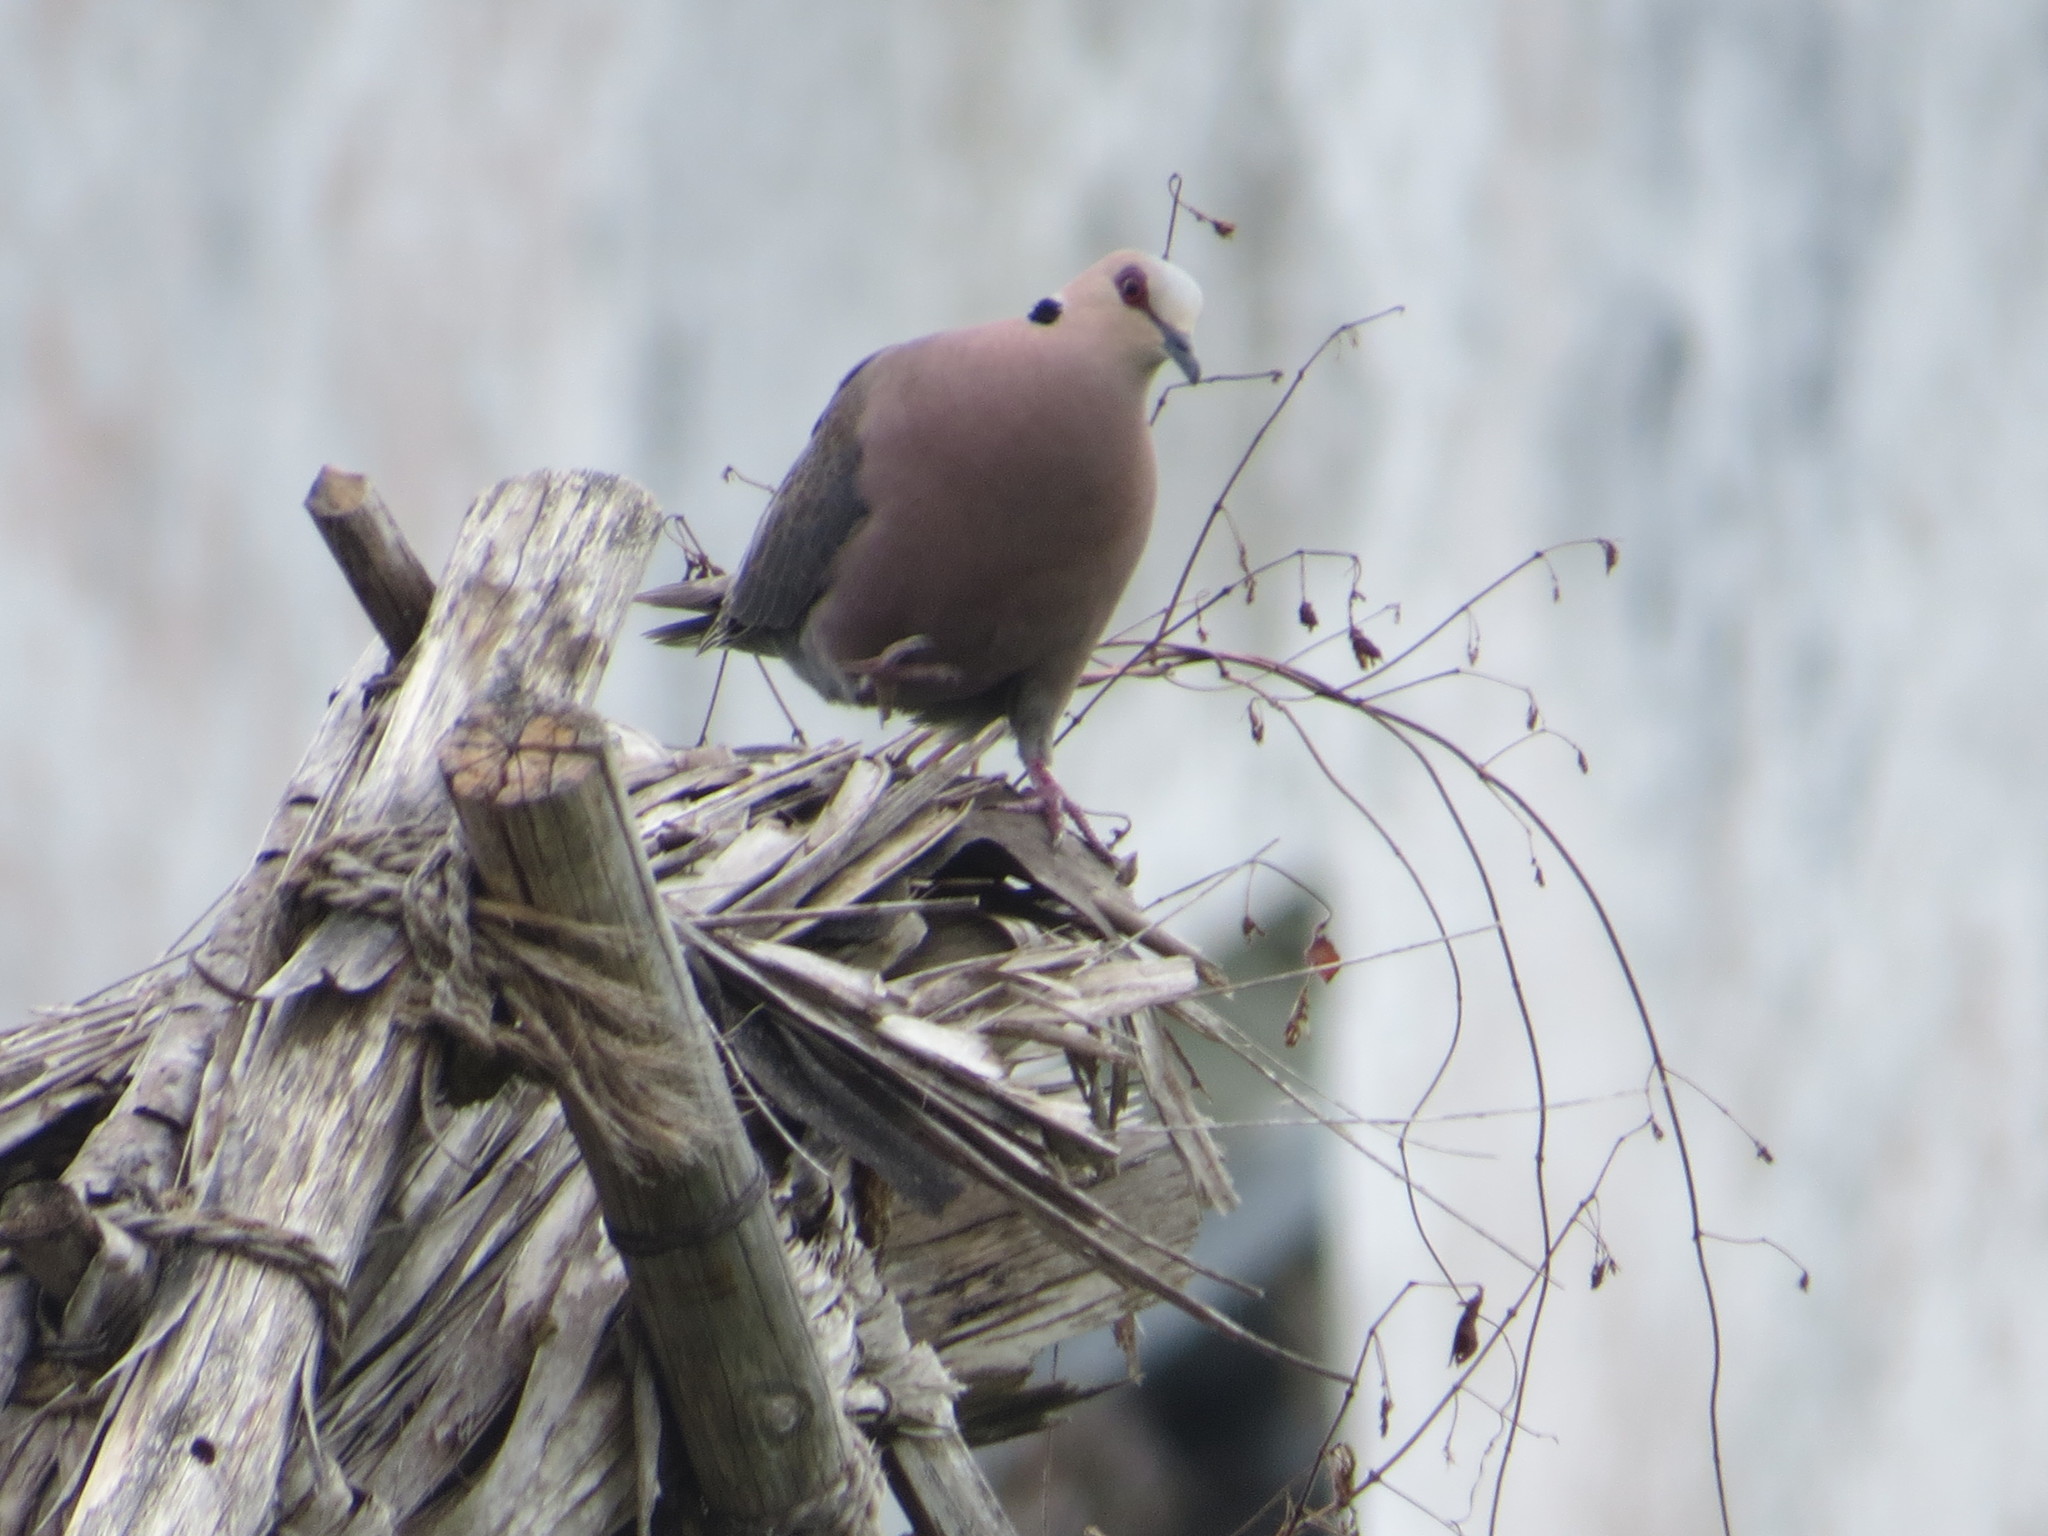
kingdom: Animalia
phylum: Chordata
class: Aves
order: Columbiformes
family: Columbidae
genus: Streptopelia
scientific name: Streptopelia semitorquata
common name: Red-eyed dove
